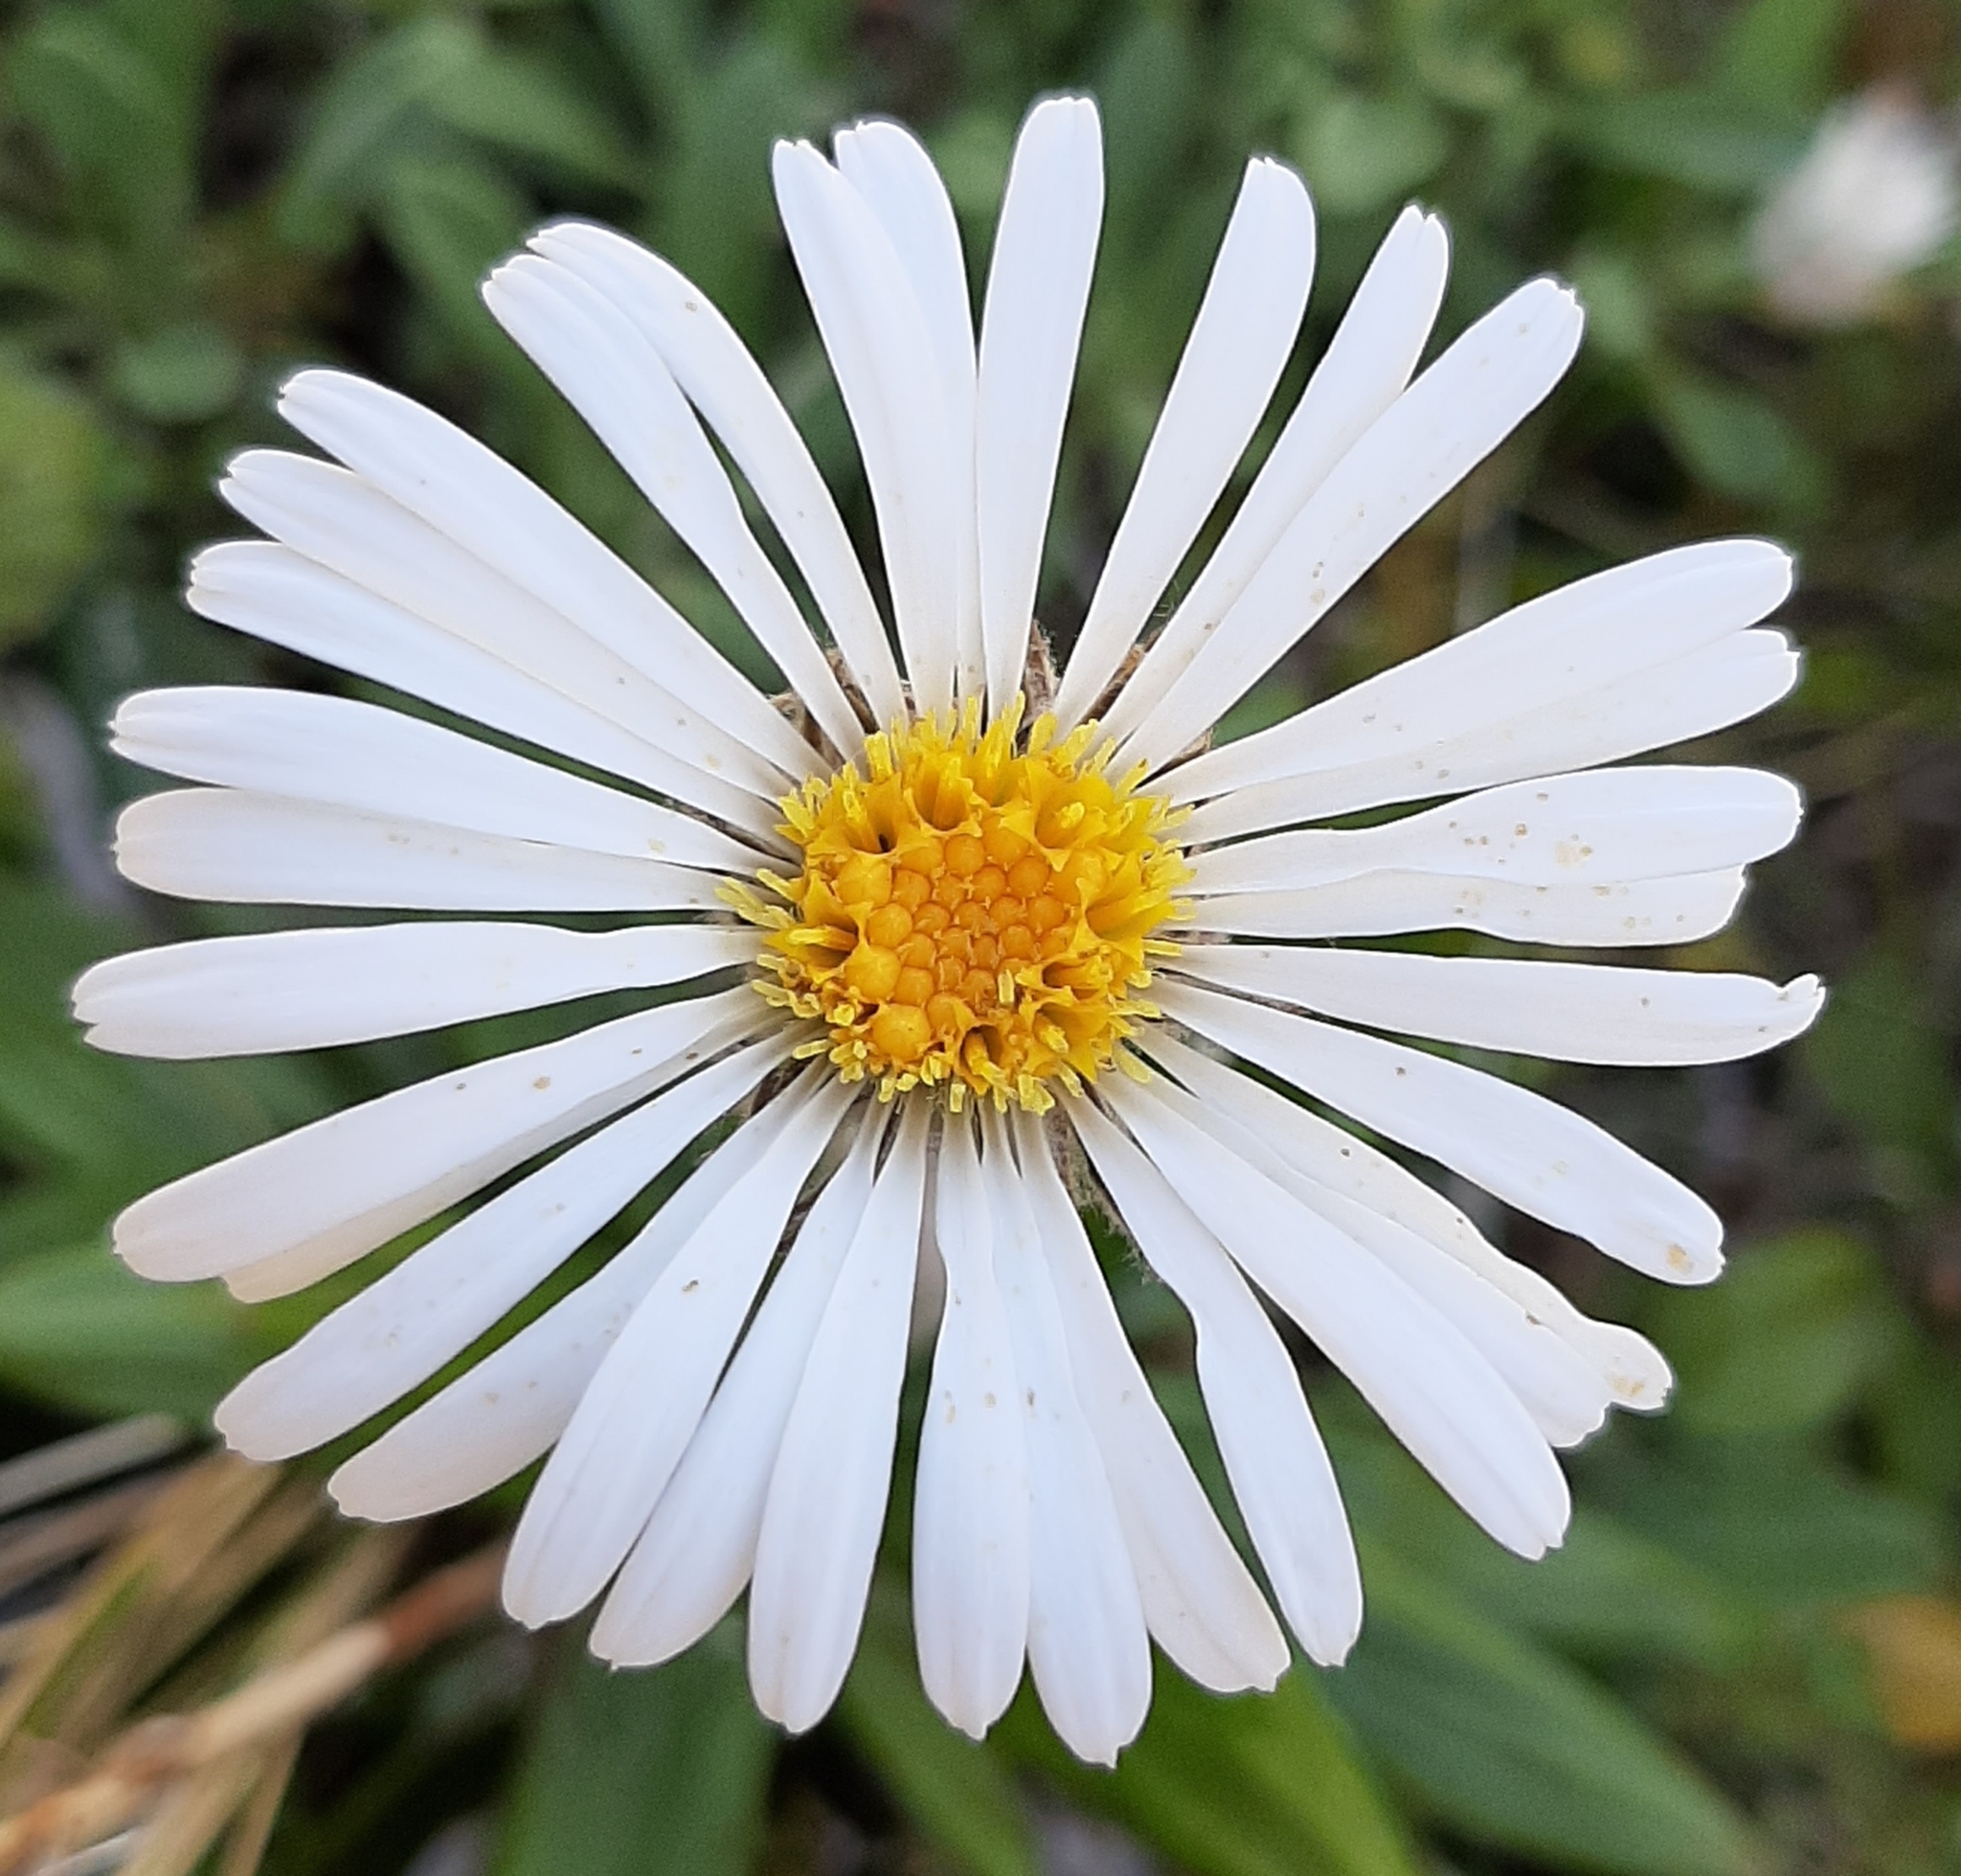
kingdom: Plantae
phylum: Tracheophyta
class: Magnoliopsida
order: Asterales
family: Asteraceae
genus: Celmisia
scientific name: Celmisia spectabilis
